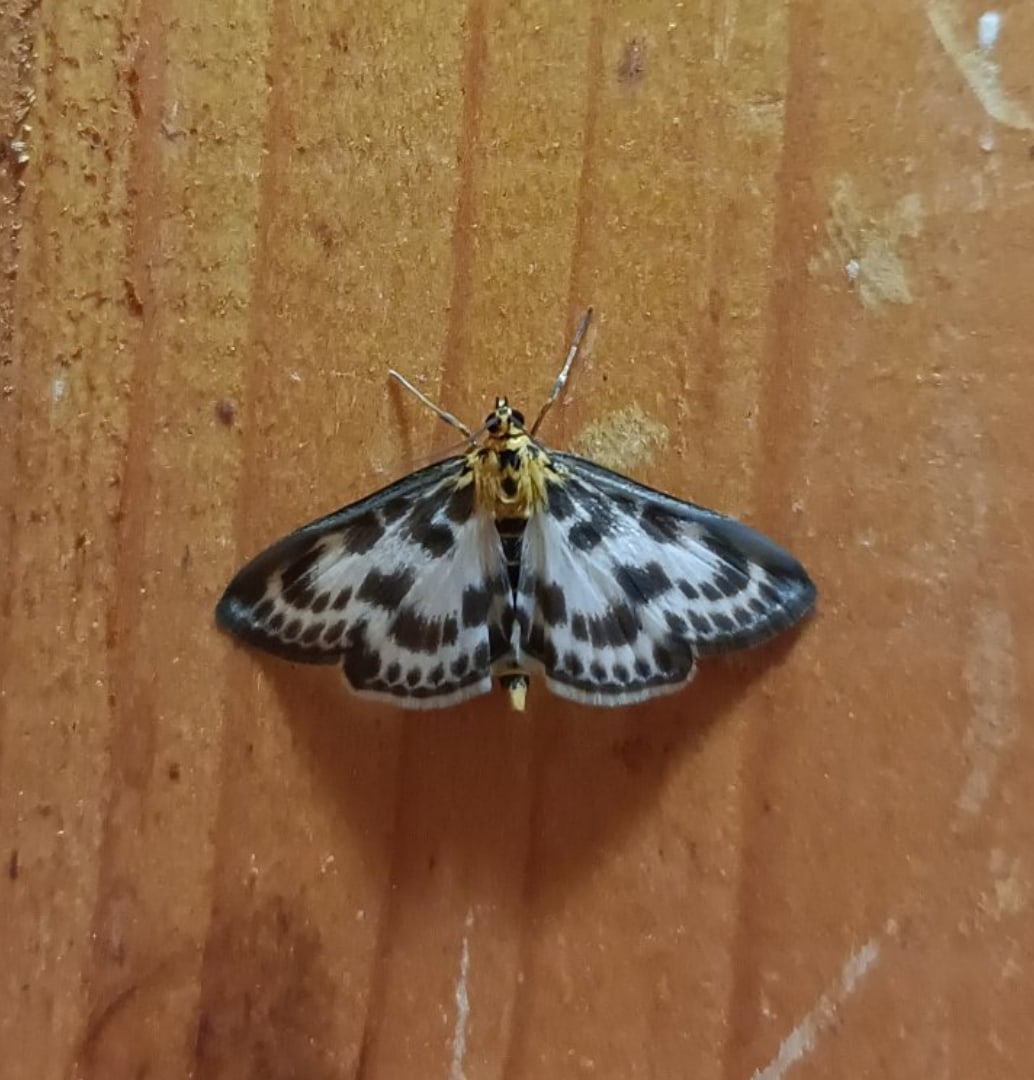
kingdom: Animalia
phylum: Arthropoda
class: Insecta
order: Lepidoptera
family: Crambidae
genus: Anania
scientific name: Anania hortulata
